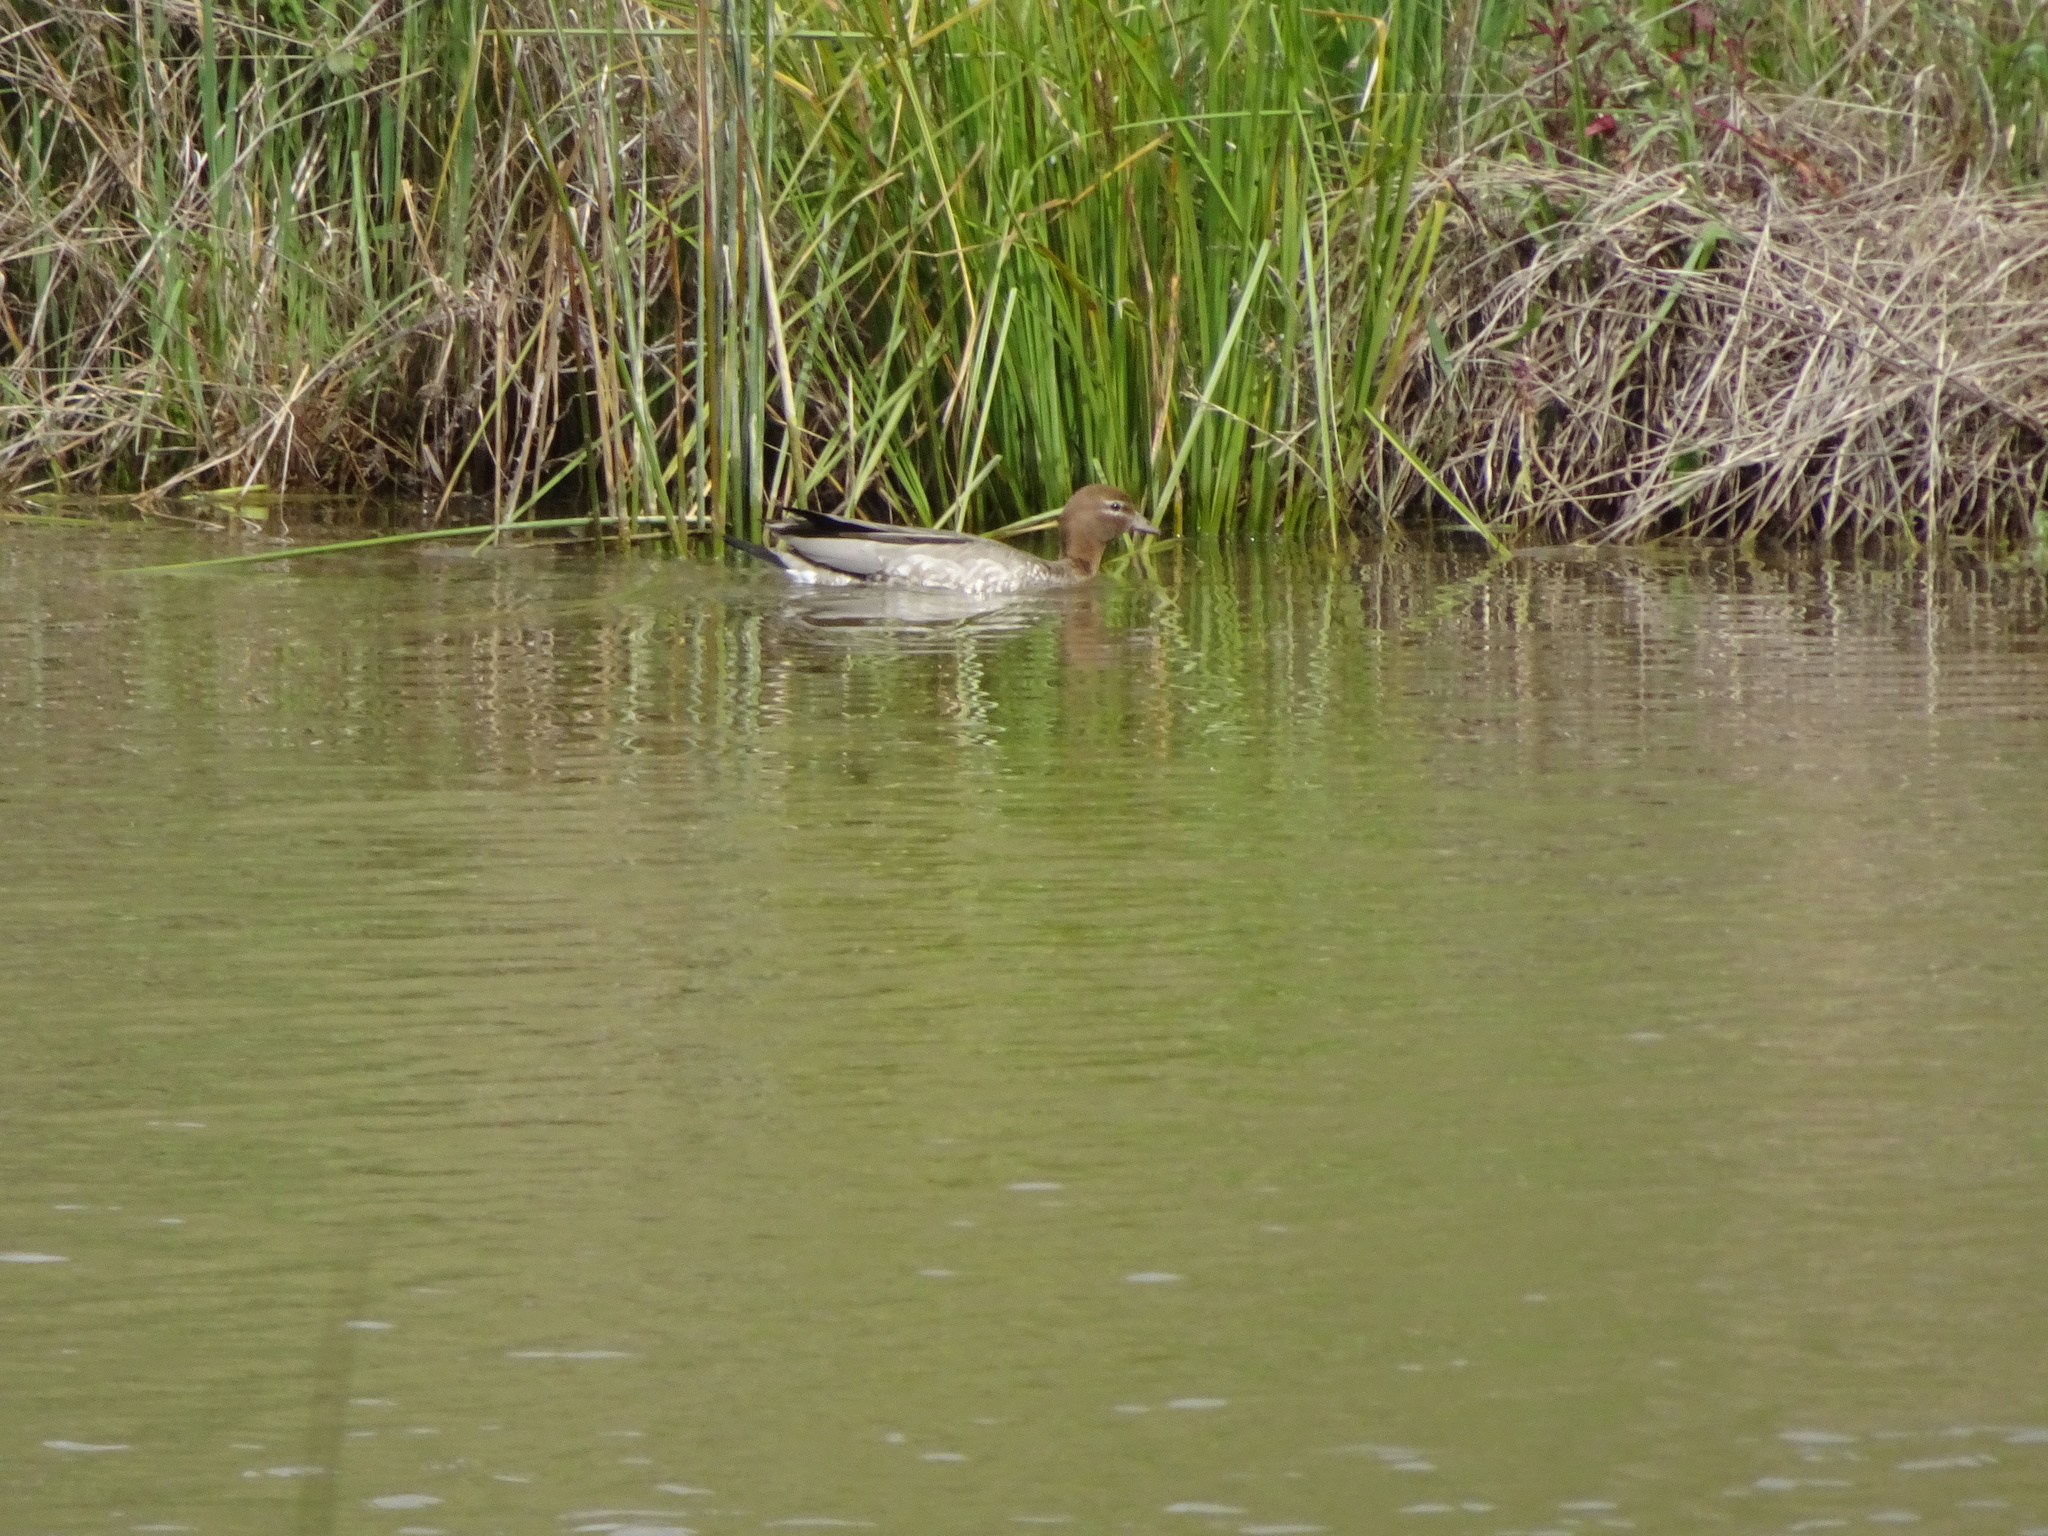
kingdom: Animalia
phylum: Chordata
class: Aves
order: Anseriformes
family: Anatidae
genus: Chenonetta
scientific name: Chenonetta jubata
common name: Maned duck
